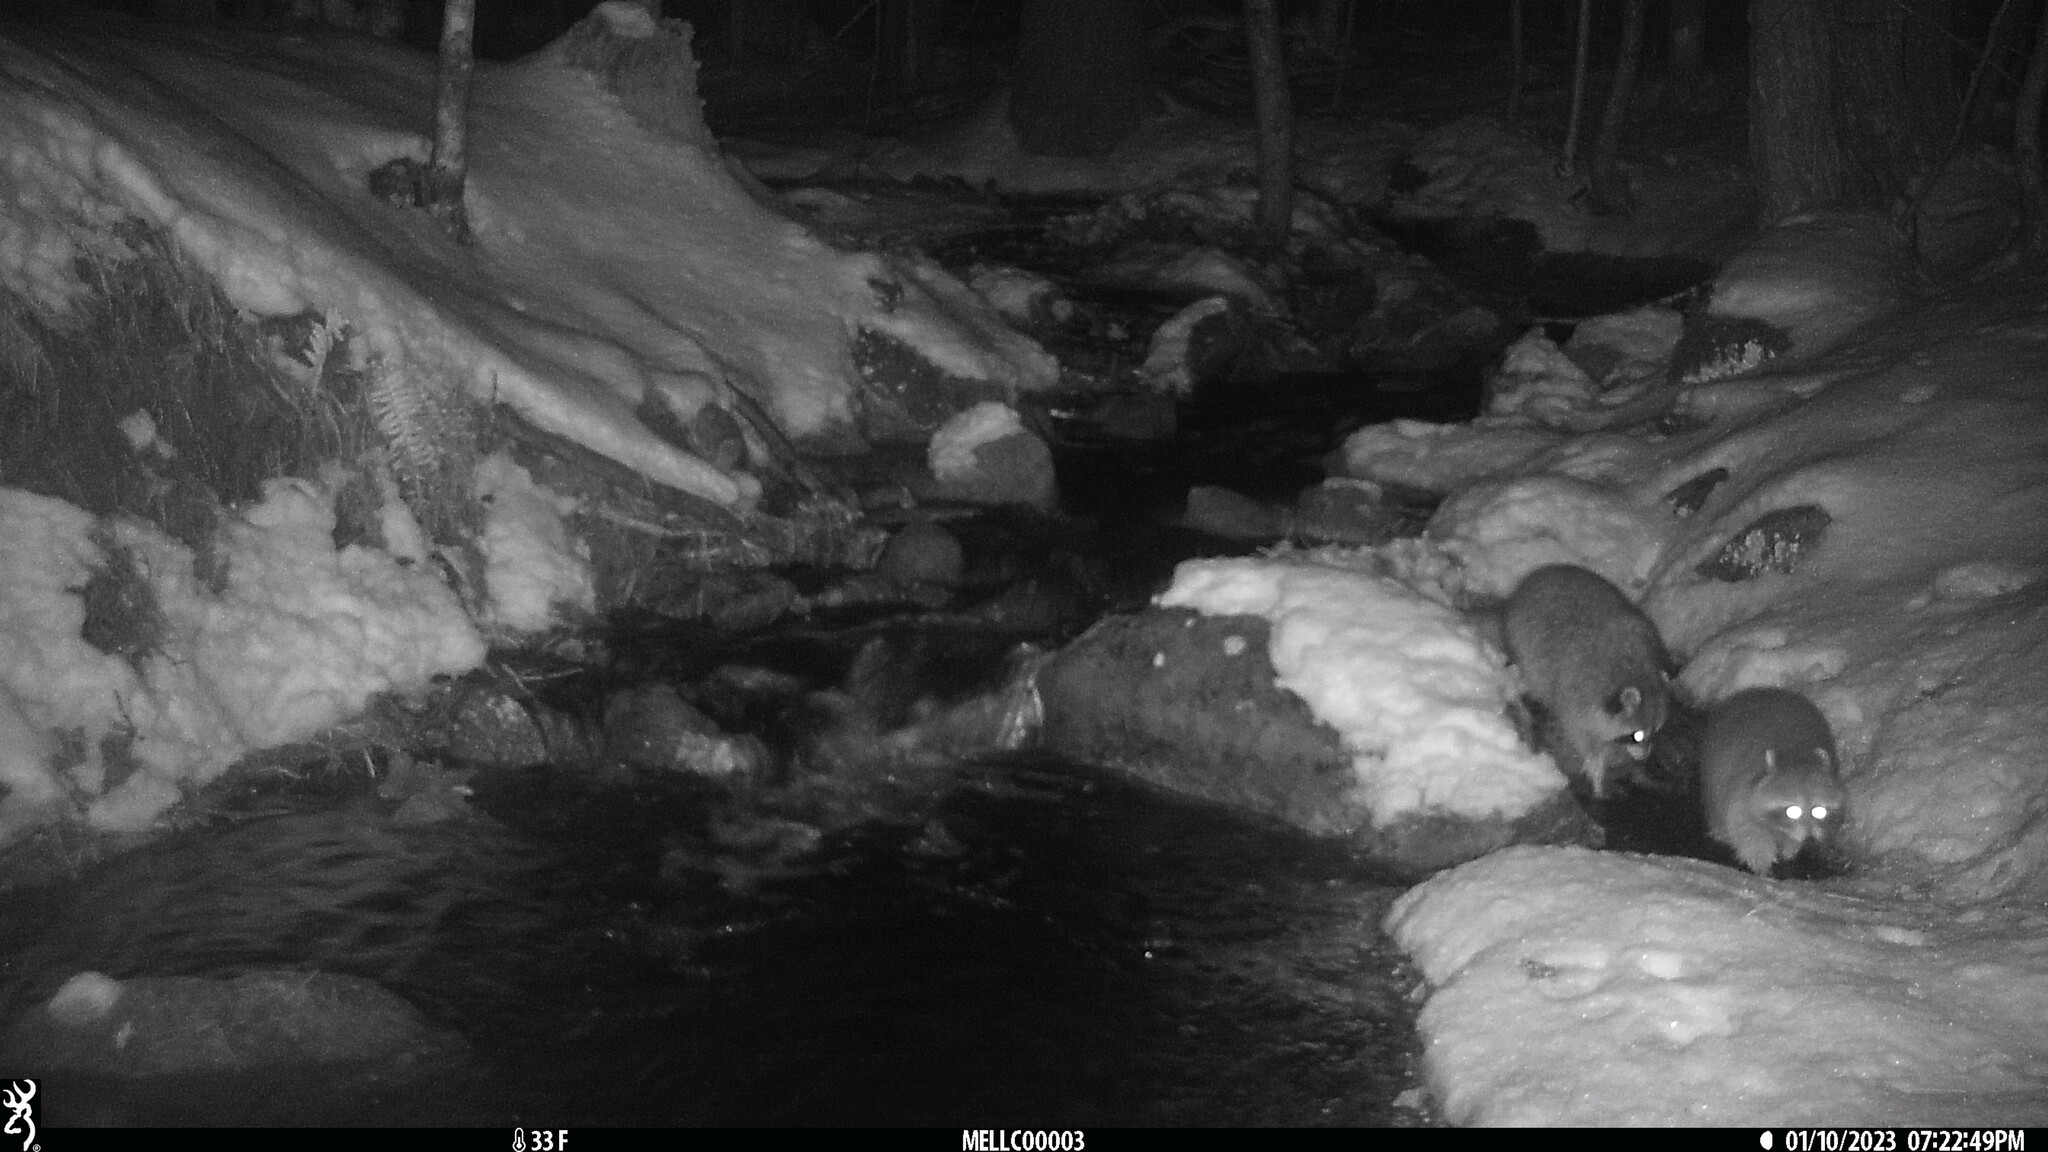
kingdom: Animalia
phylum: Chordata
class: Mammalia
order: Carnivora
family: Procyonidae
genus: Procyon
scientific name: Procyon lotor
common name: Raccoon
